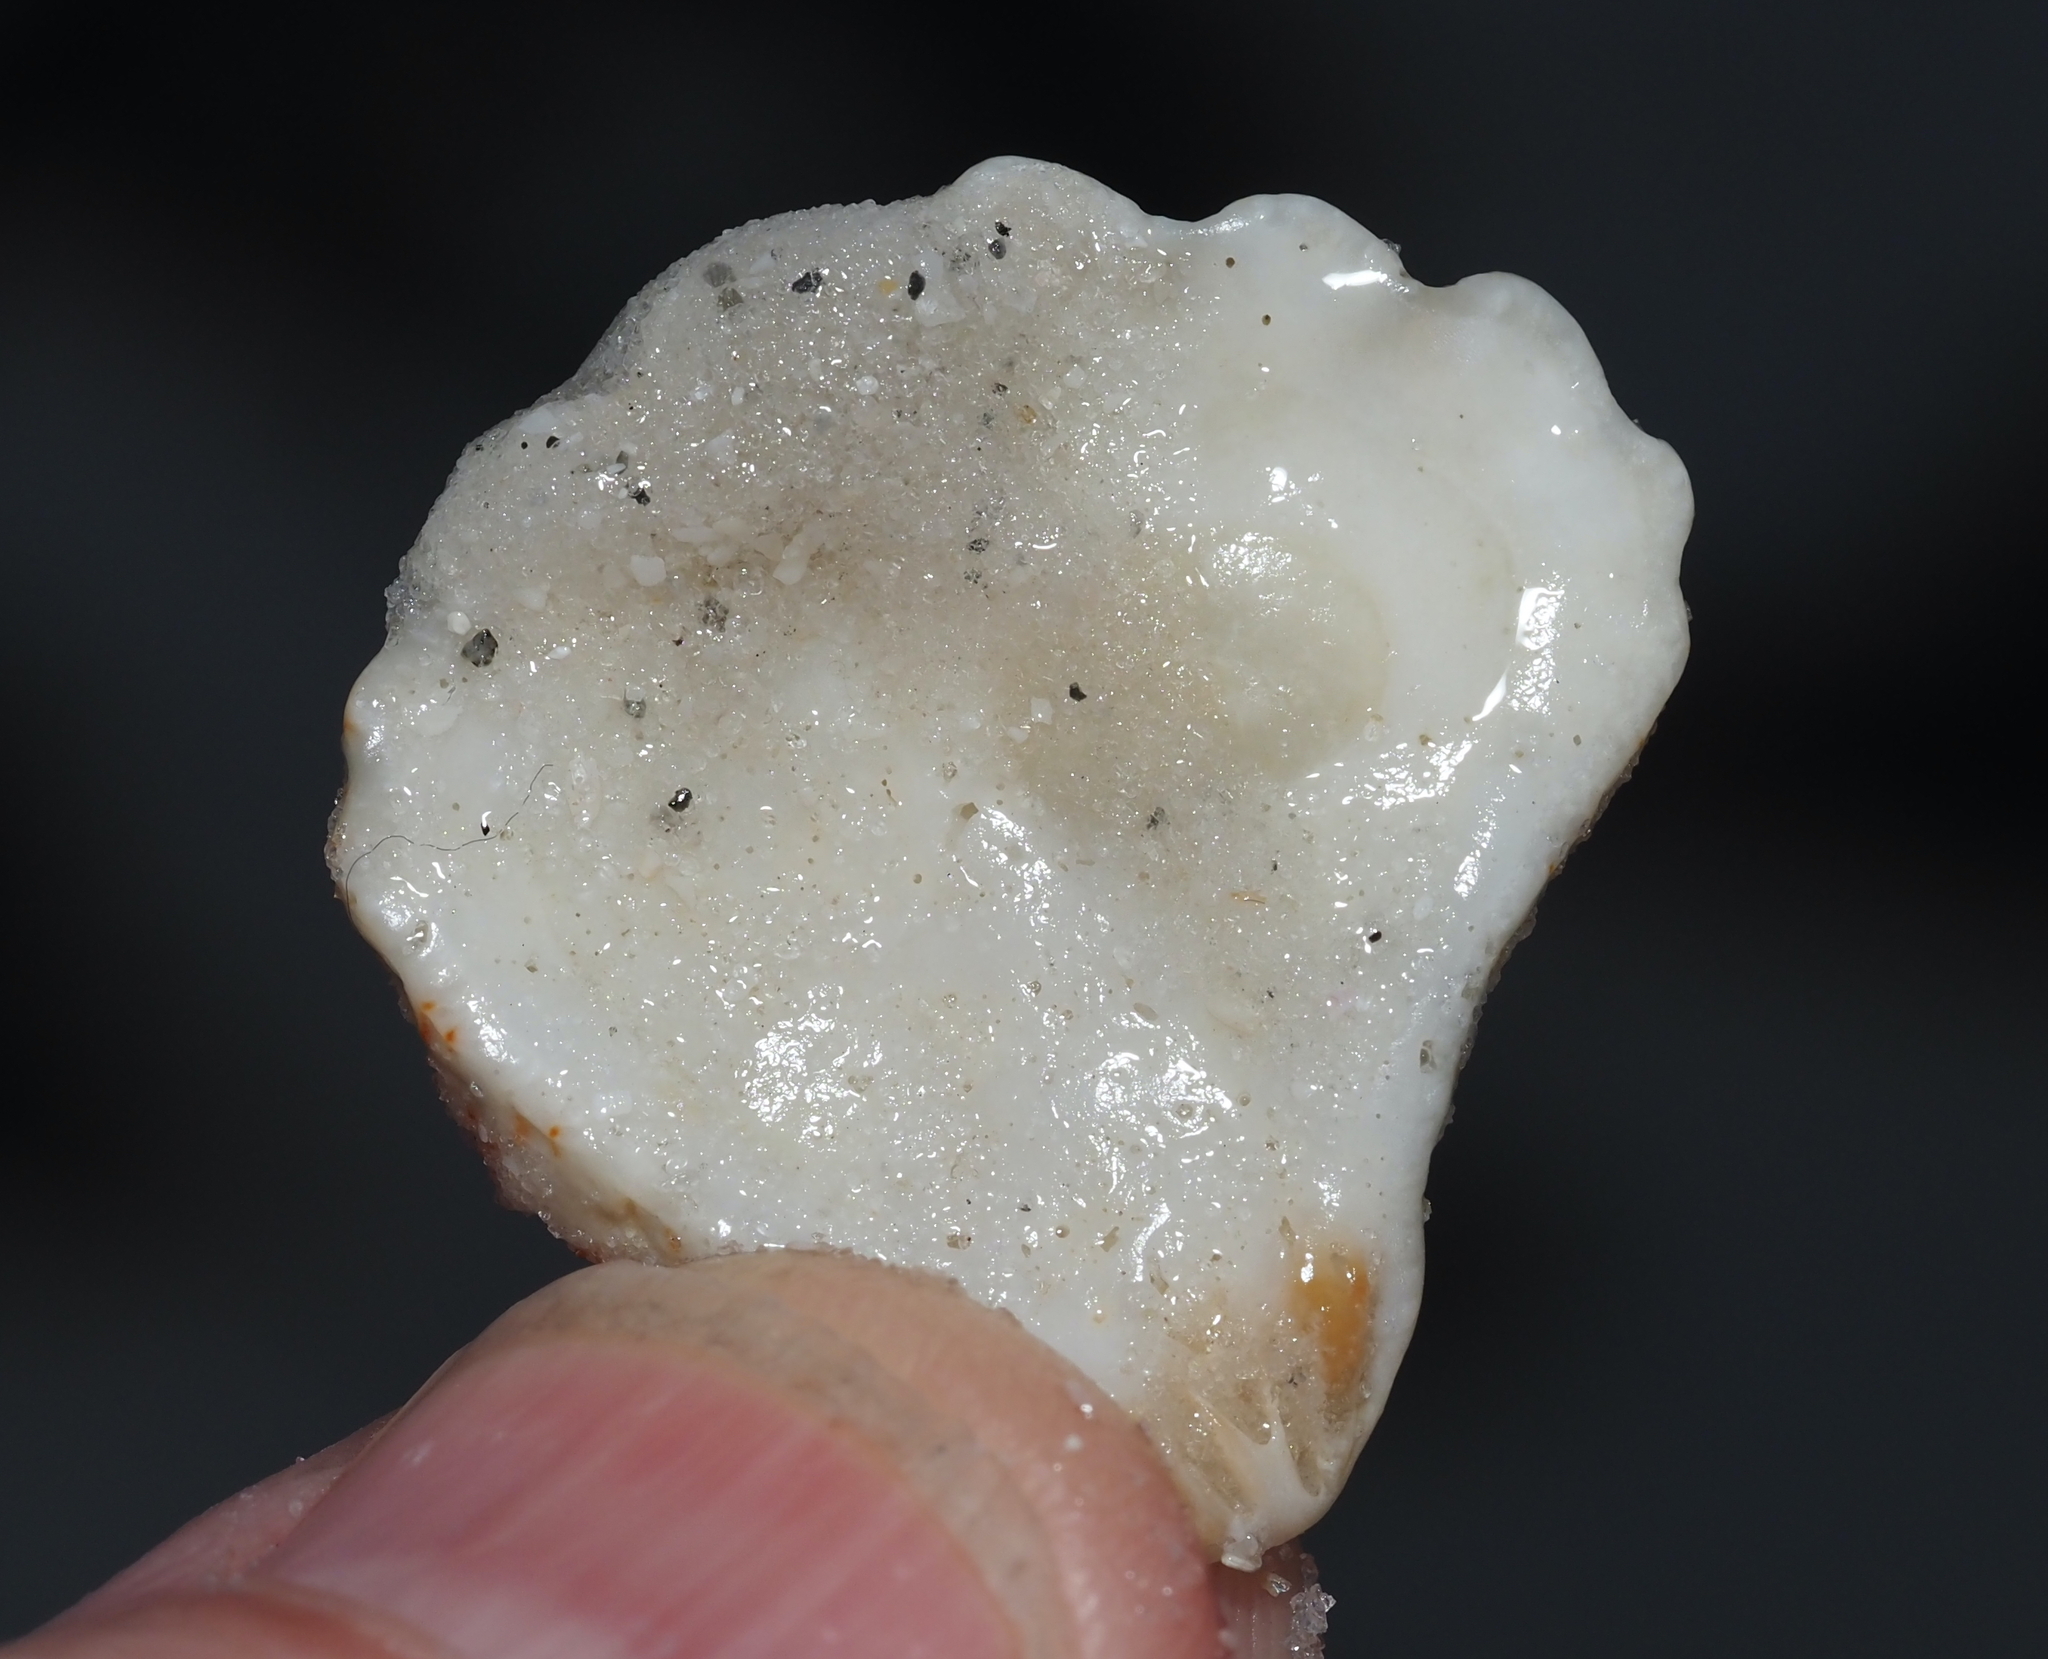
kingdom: Animalia
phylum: Mollusca
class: Bivalvia
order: Pectinida
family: Plicatulidae
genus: Plicatula
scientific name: Plicatula gibbosa
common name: Atlantic kitten's paw
